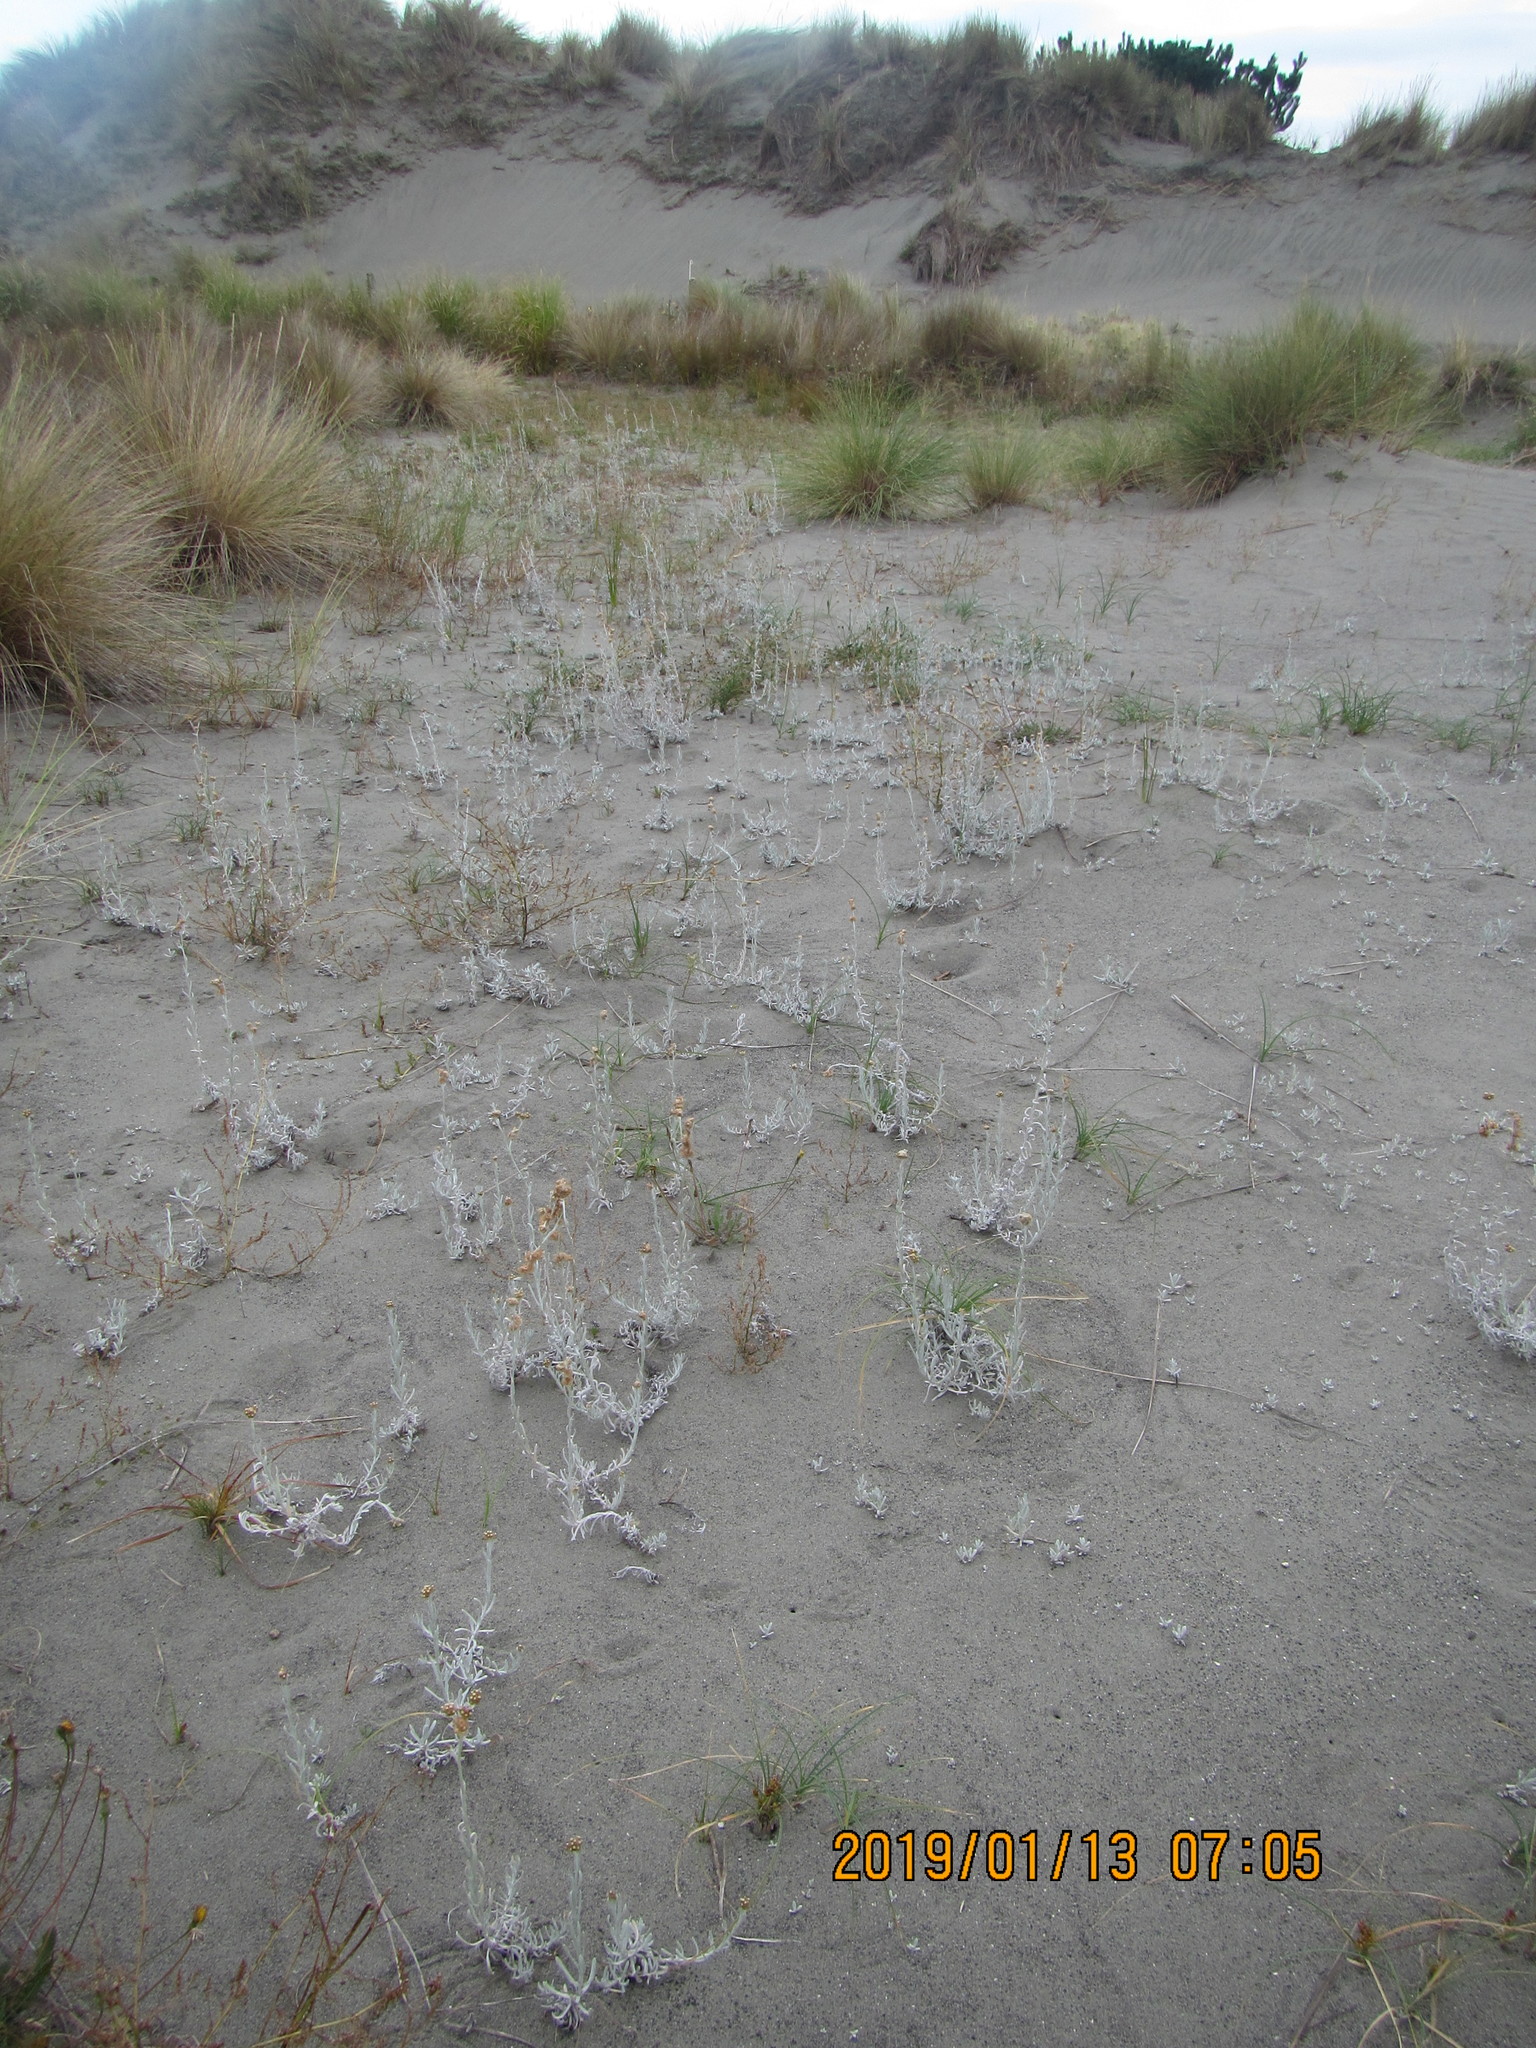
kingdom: Plantae
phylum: Tracheophyta
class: Magnoliopsida
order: Asterales
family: Asteraceae
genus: Helichrysum
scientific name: Helichrysum luteoalbum
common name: Daisy
